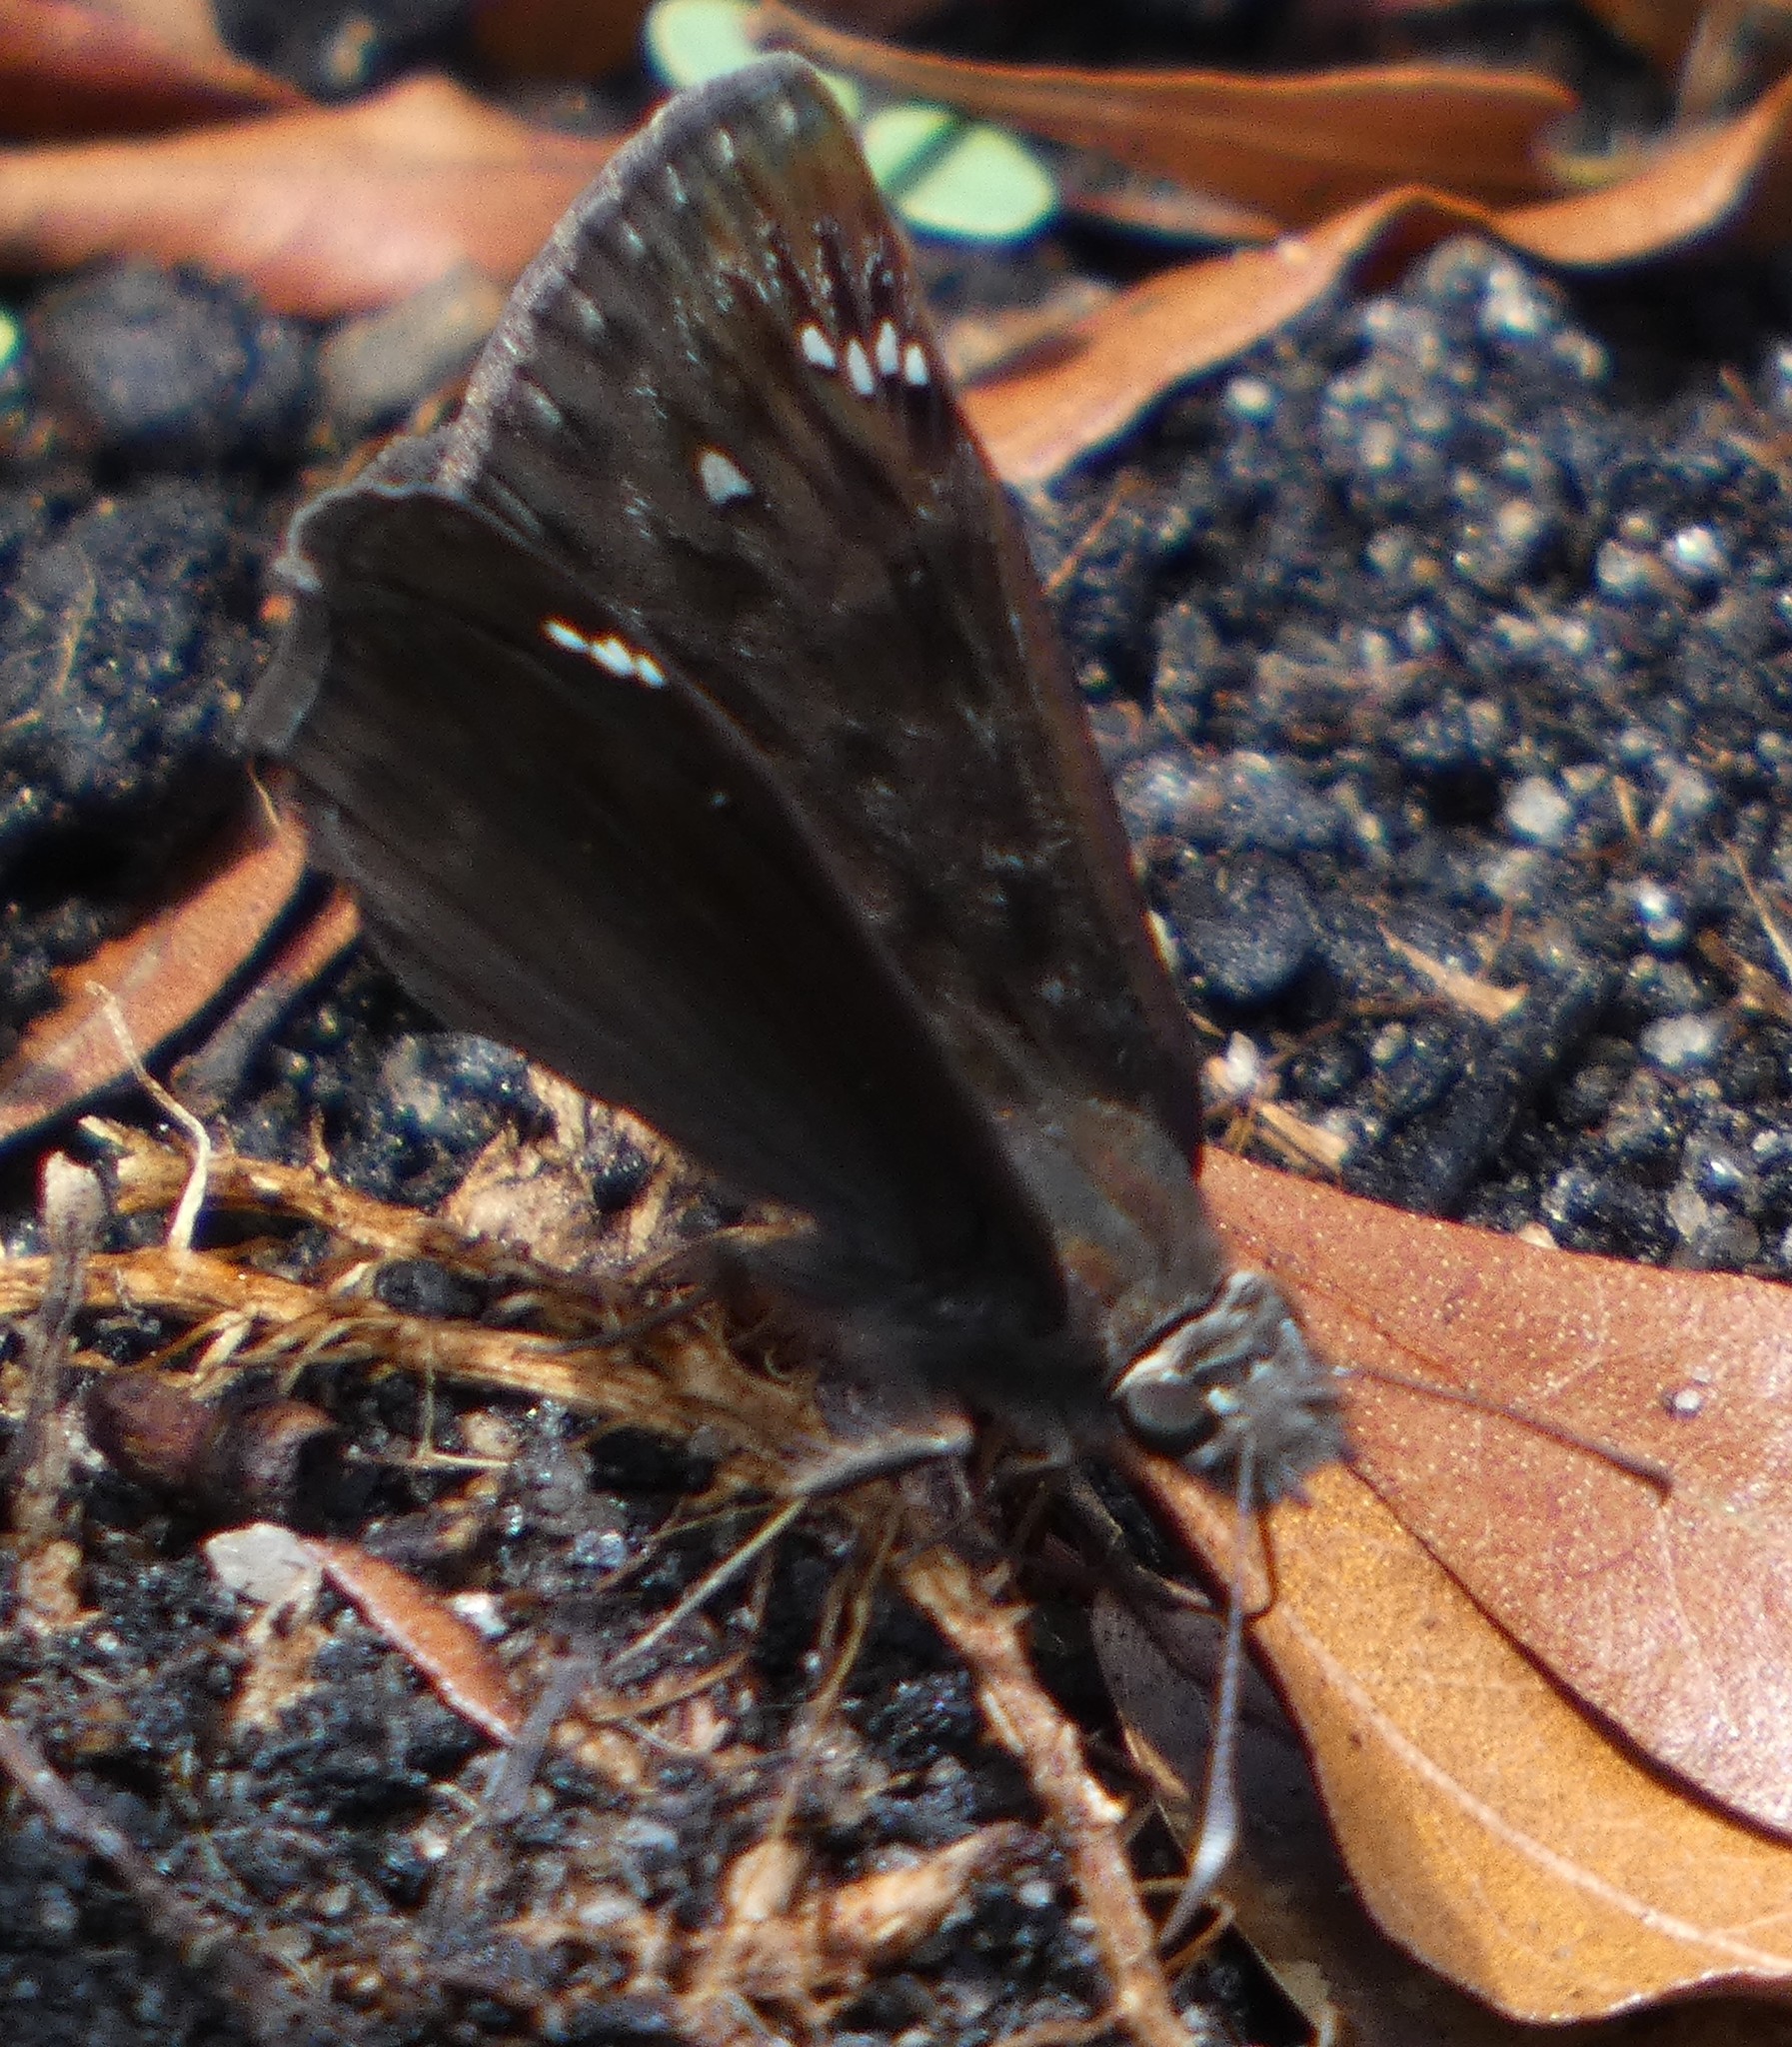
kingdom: Animalia
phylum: Arthropoda
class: Insecta
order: Lepidoptera
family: Hesperiidae
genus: Erynnis
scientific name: Erynnis horatius
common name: Horace's duskywing
